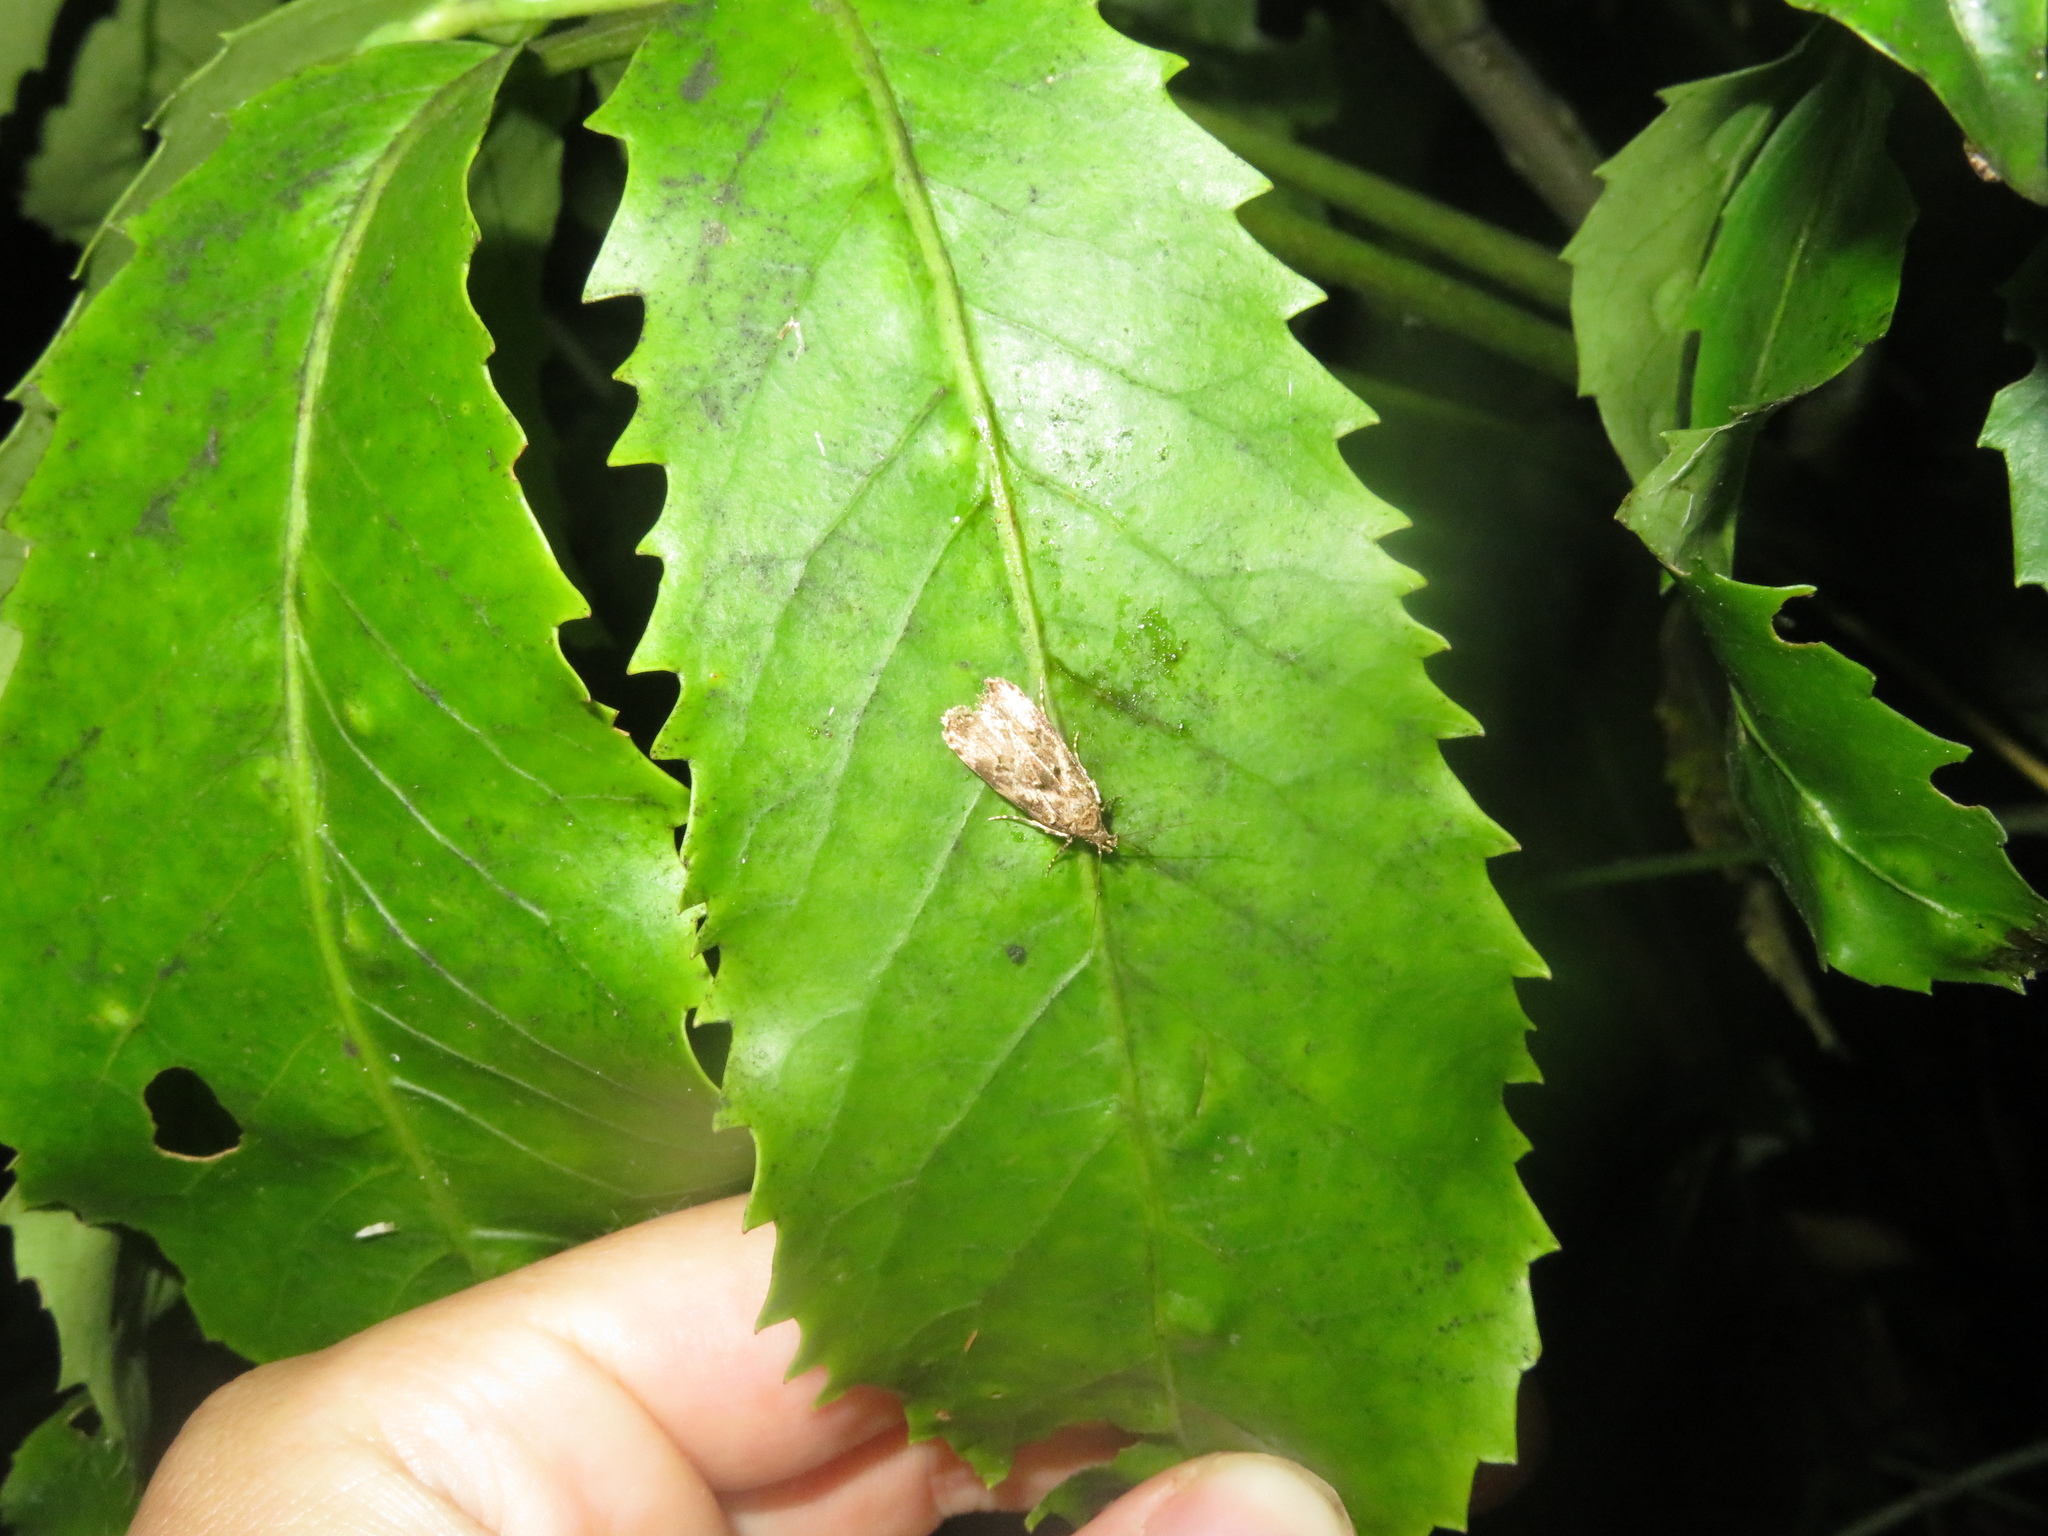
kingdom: Animalia
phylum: Arthropoda
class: Insecta
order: Lepidoptera
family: Oecophoridae
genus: Izatha
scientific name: Izatha austera
